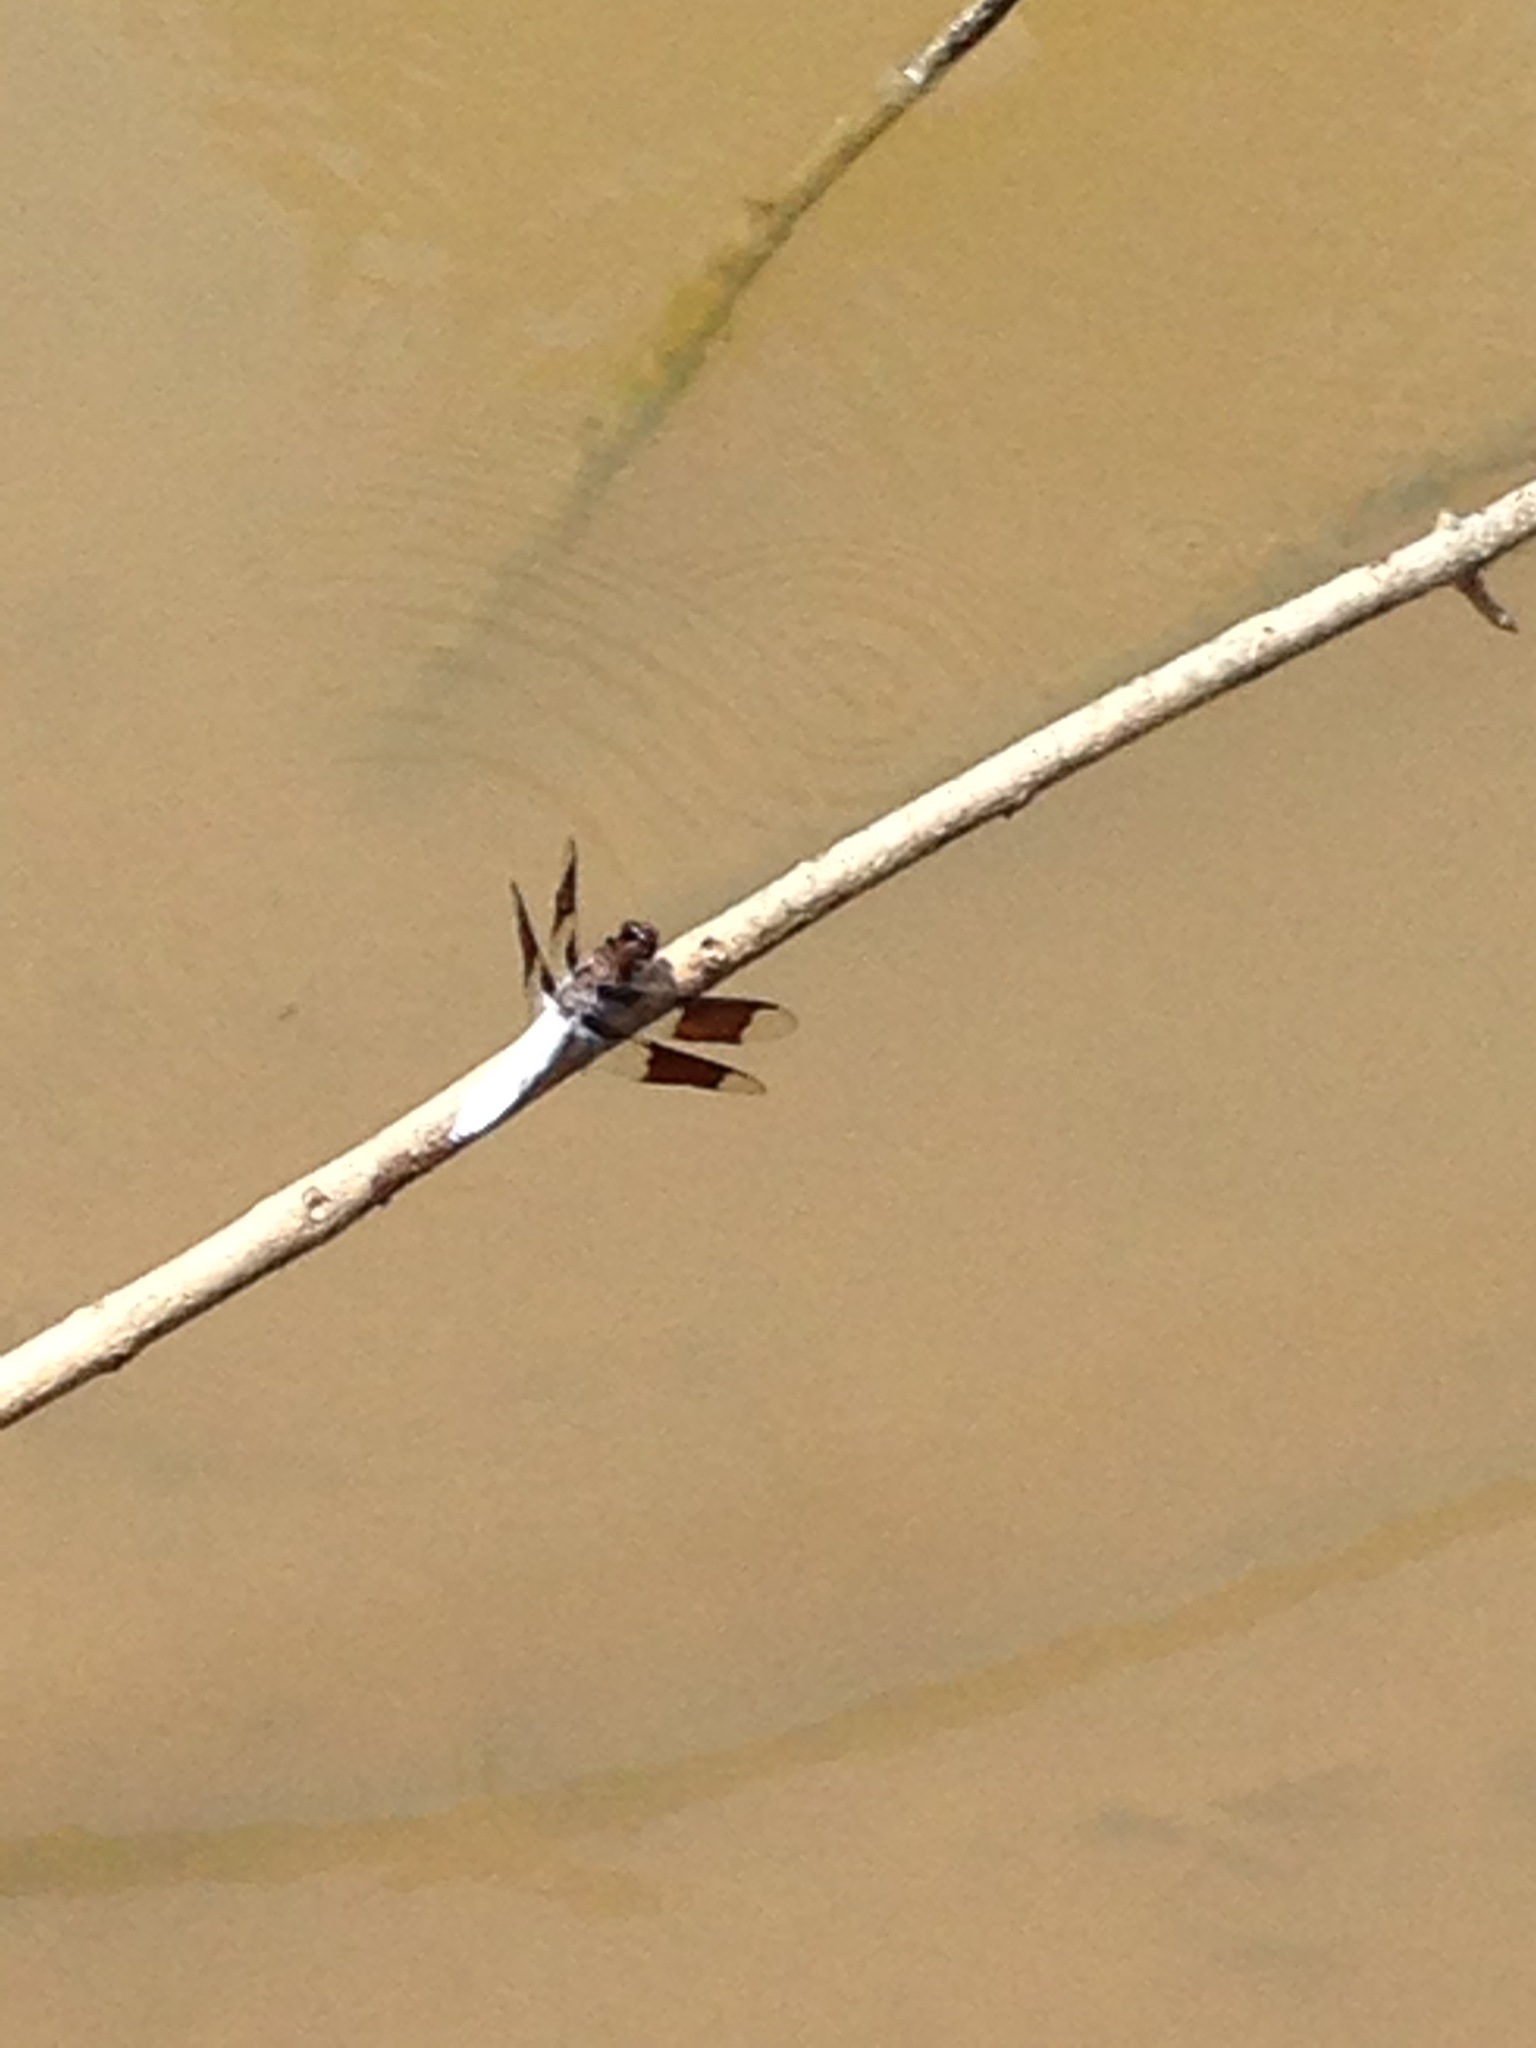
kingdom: Animalia
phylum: Arthropoda
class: Insecta
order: Odonata
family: Libellulidae
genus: Plathemis
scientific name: Plathemis lydia
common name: Common whitetail
